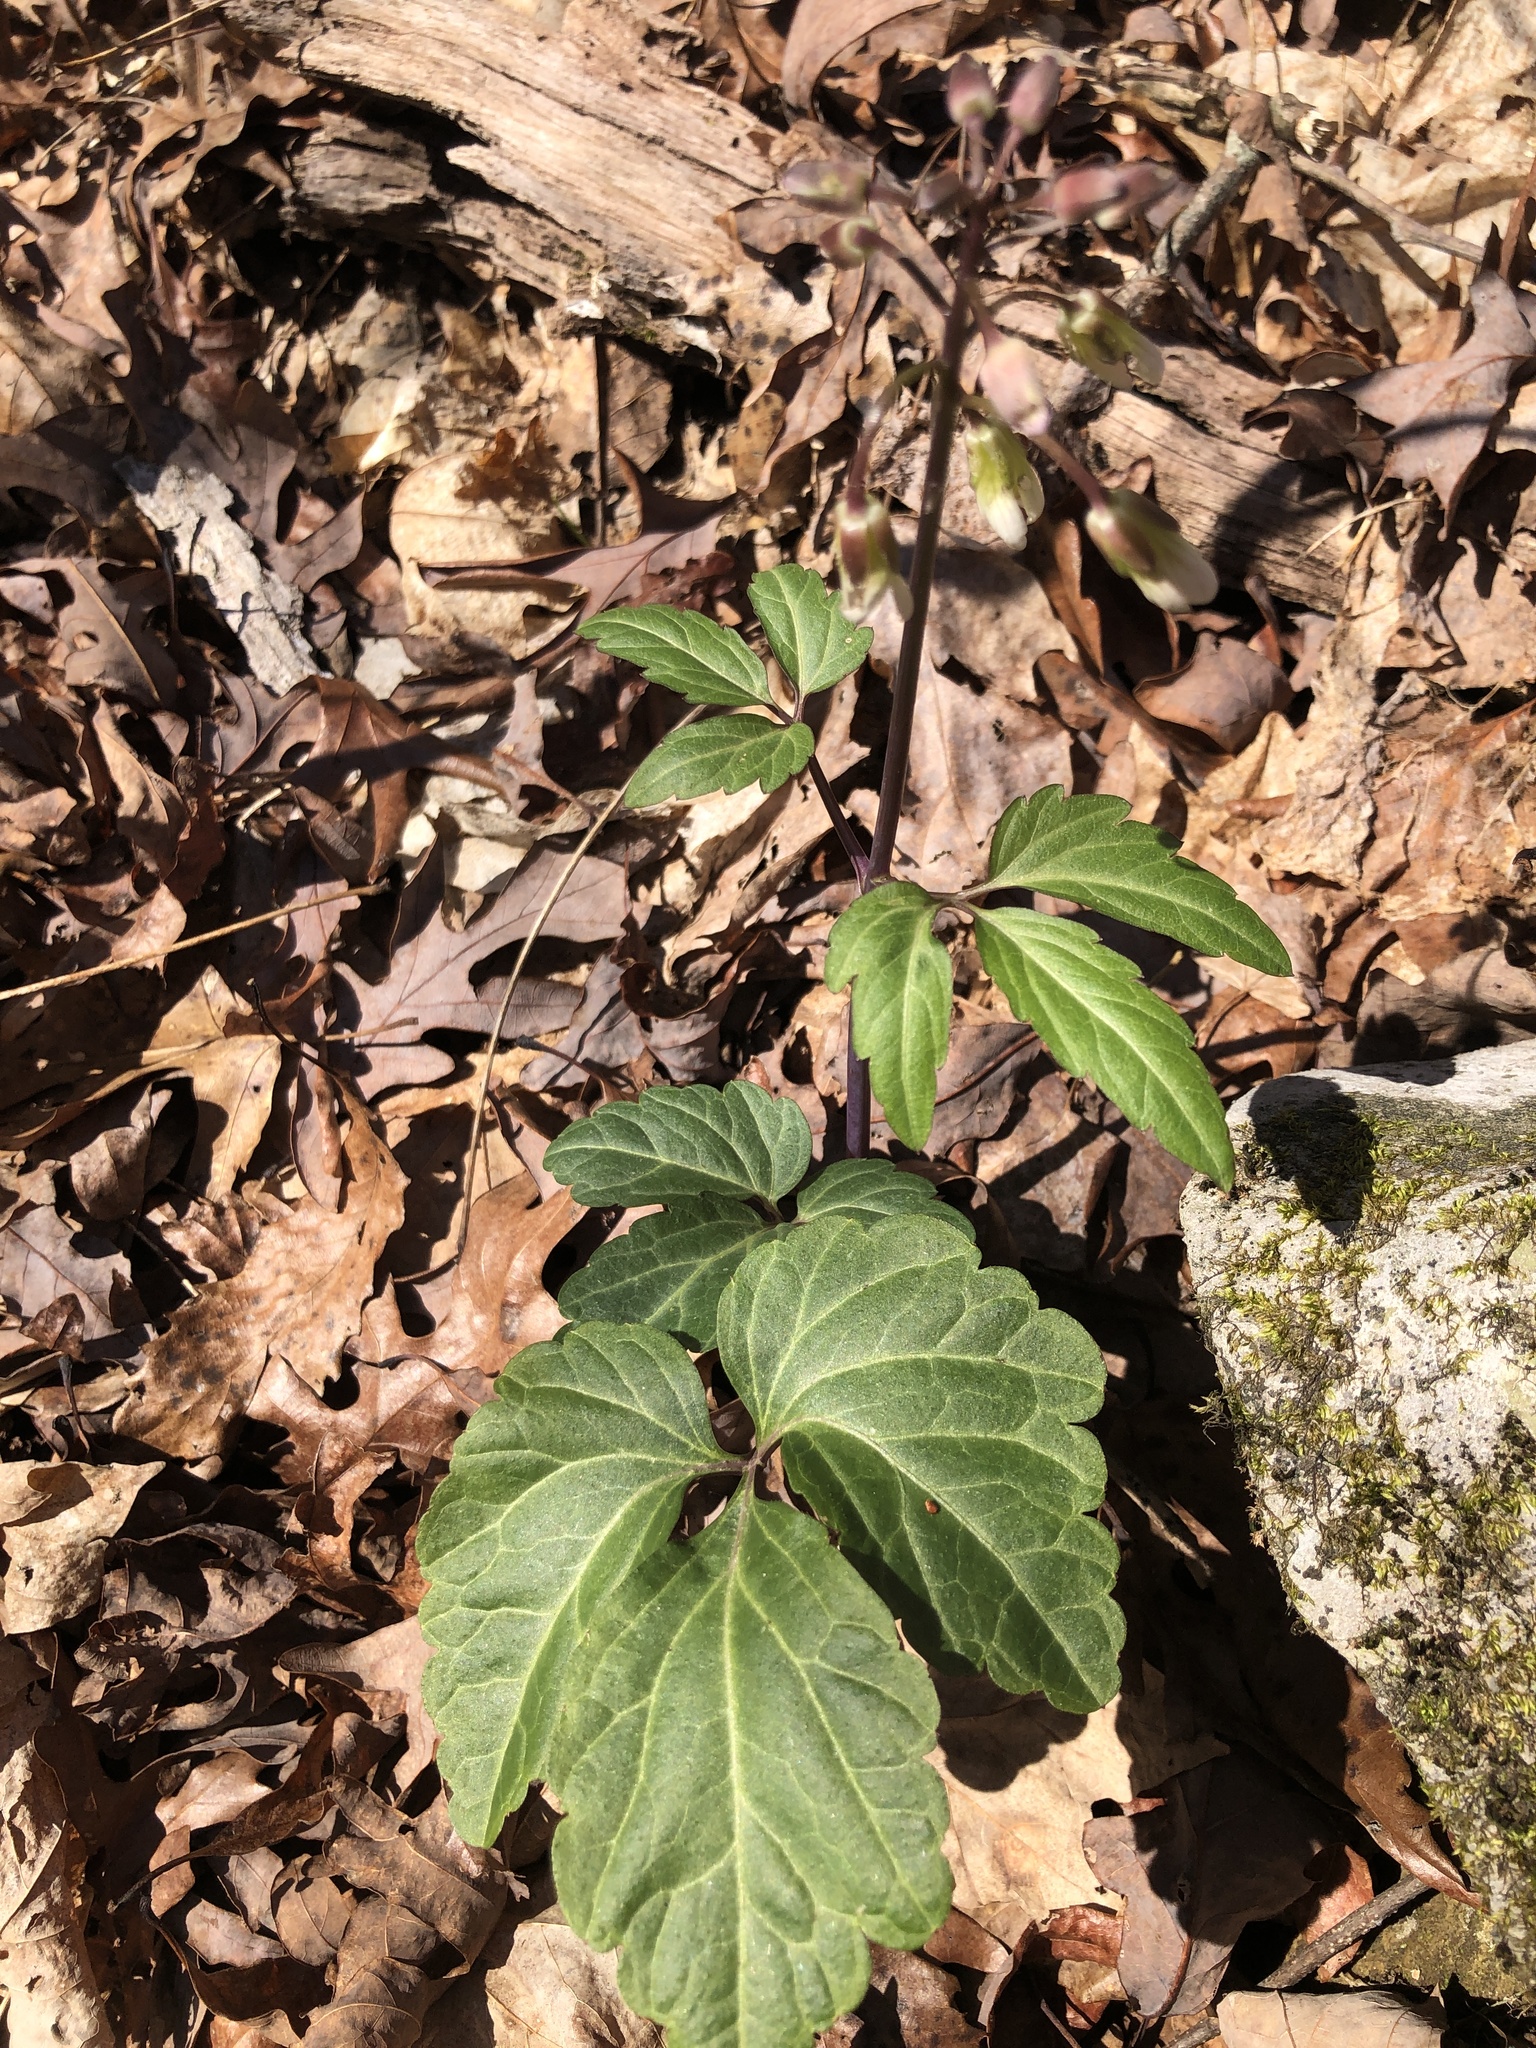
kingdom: Plantae
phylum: Tracheophyta
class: Magnoliopsida
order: Brassicales
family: Brassicaceae
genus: Cardamine
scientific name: Cardamine diphylla
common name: Broad-leaved toothwort
